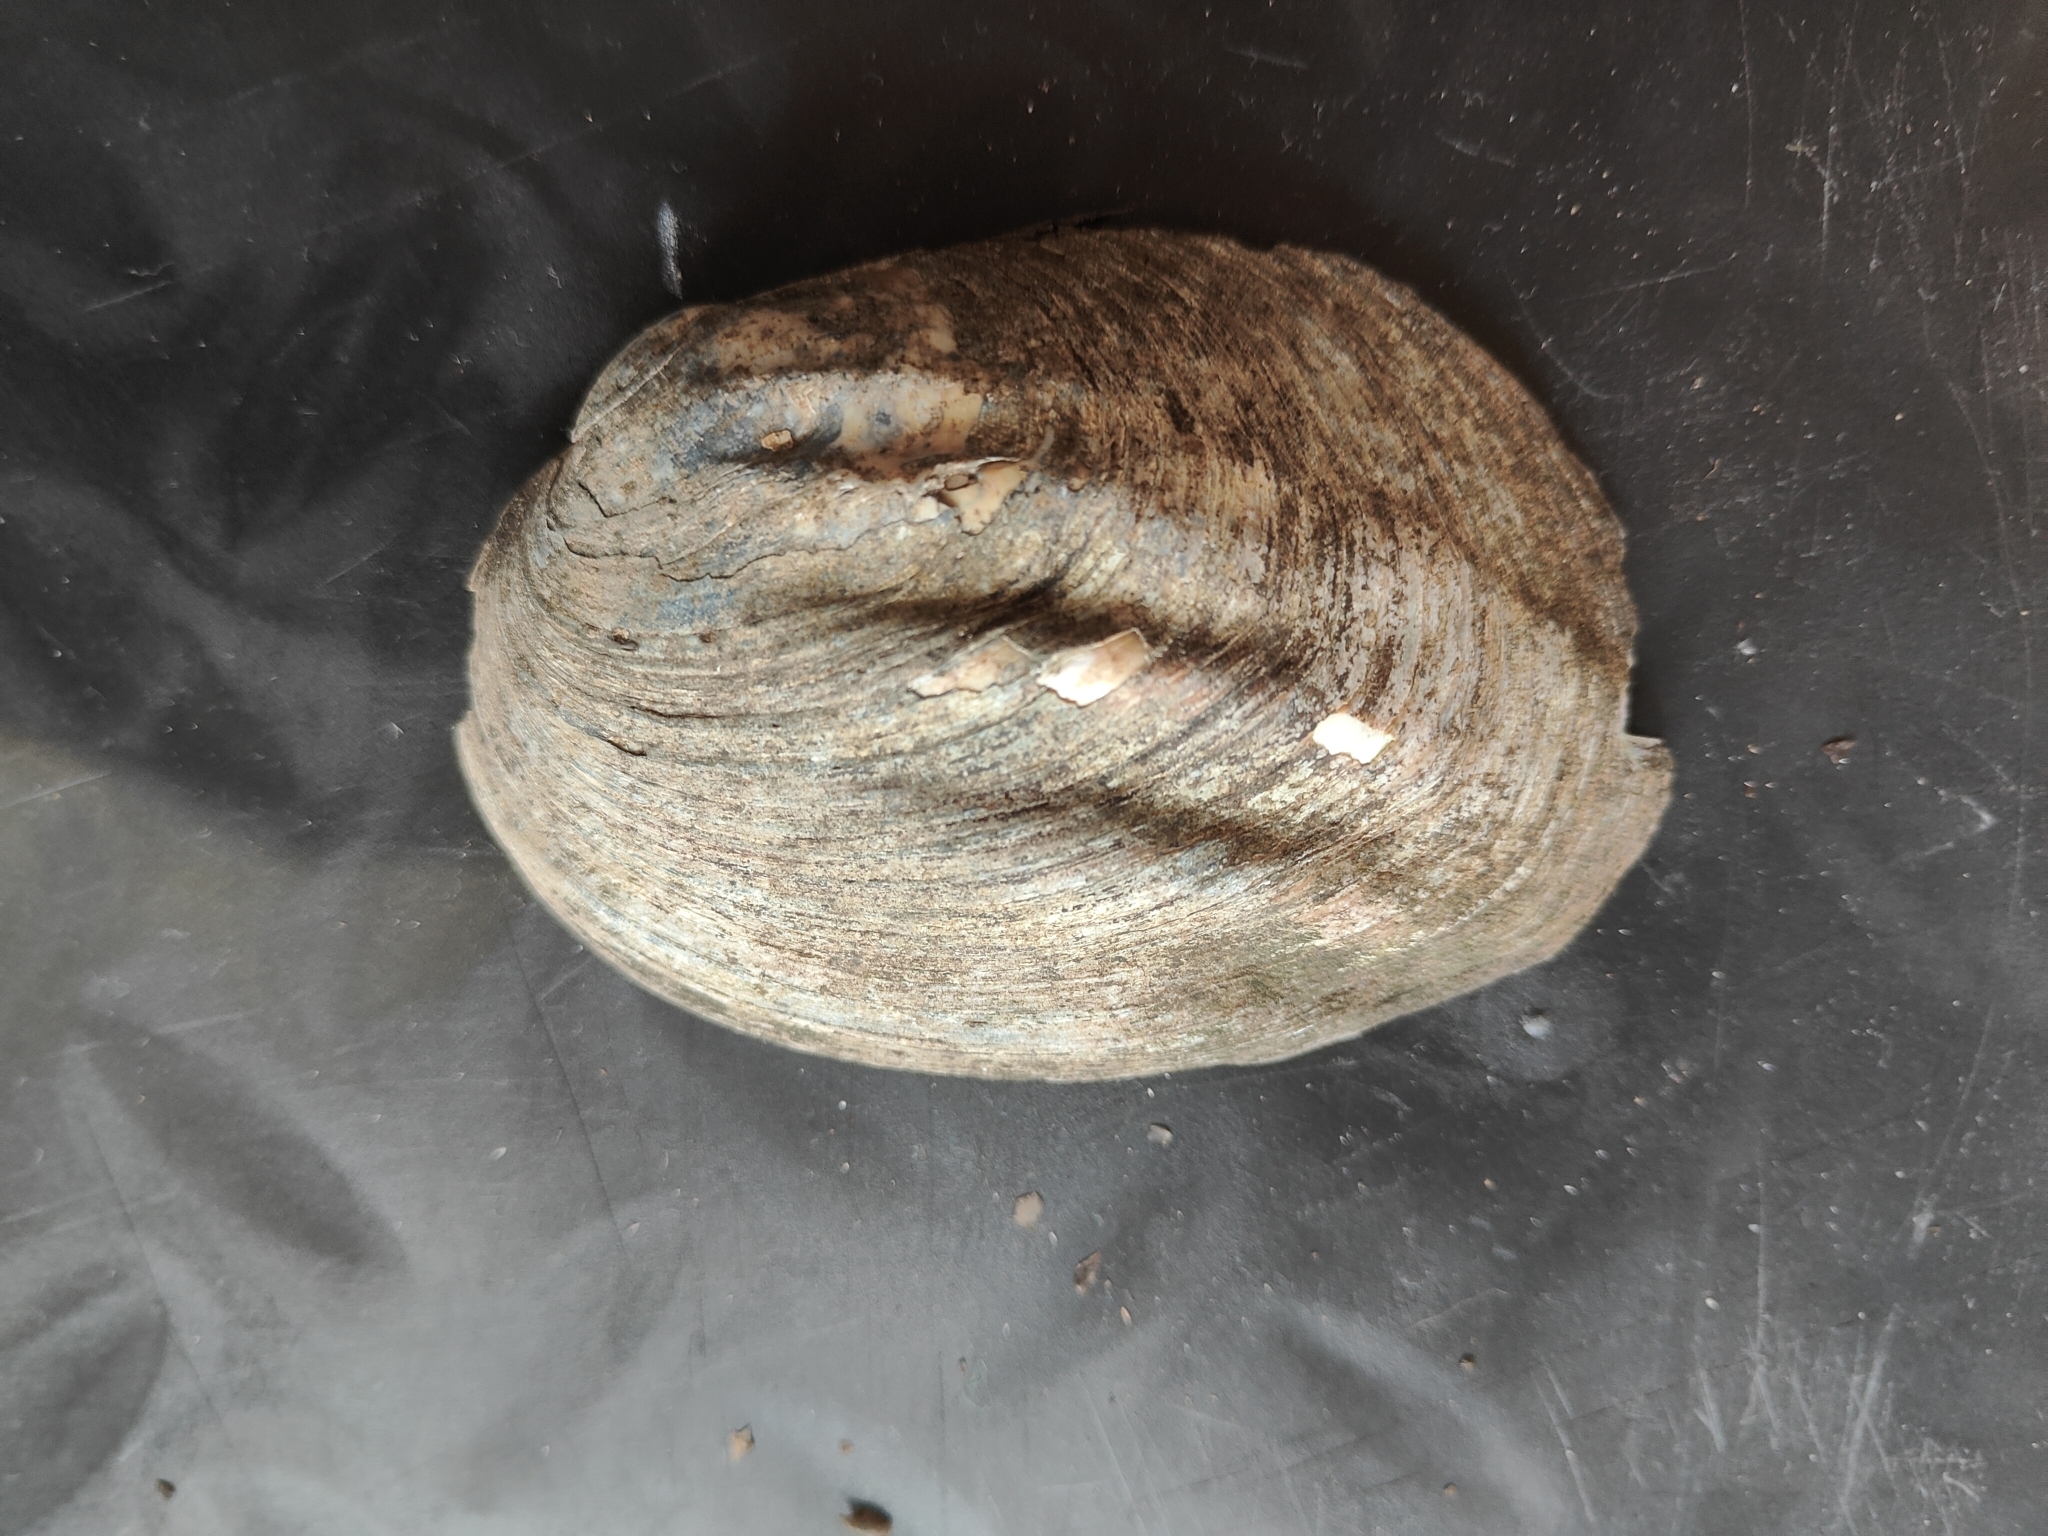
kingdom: Animalia
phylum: Mollusca
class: Bivalvia
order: Unionida
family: Unionidae
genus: Amblema
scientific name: Amblema plicata
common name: Threeridge
